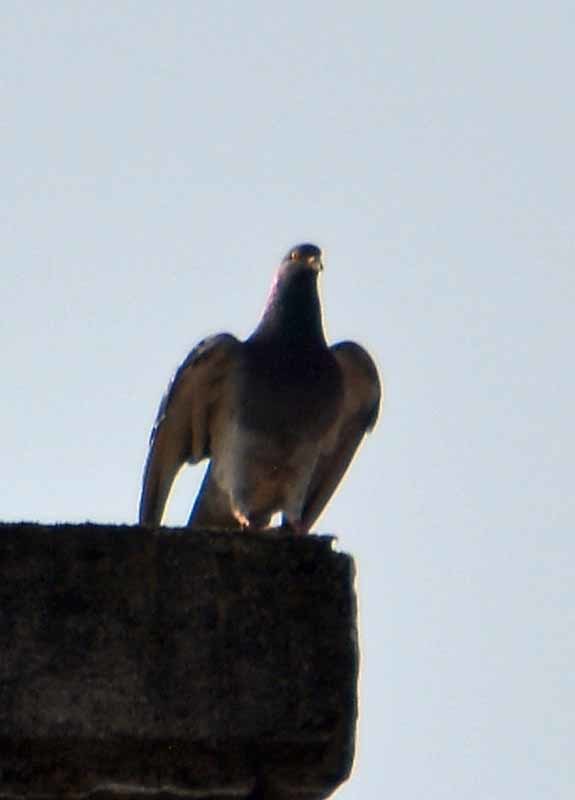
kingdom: Animalia
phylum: Chordata
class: Aves
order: Columbiformes
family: Columbidae
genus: Columba
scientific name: Columba livia
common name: Rock pigeon
